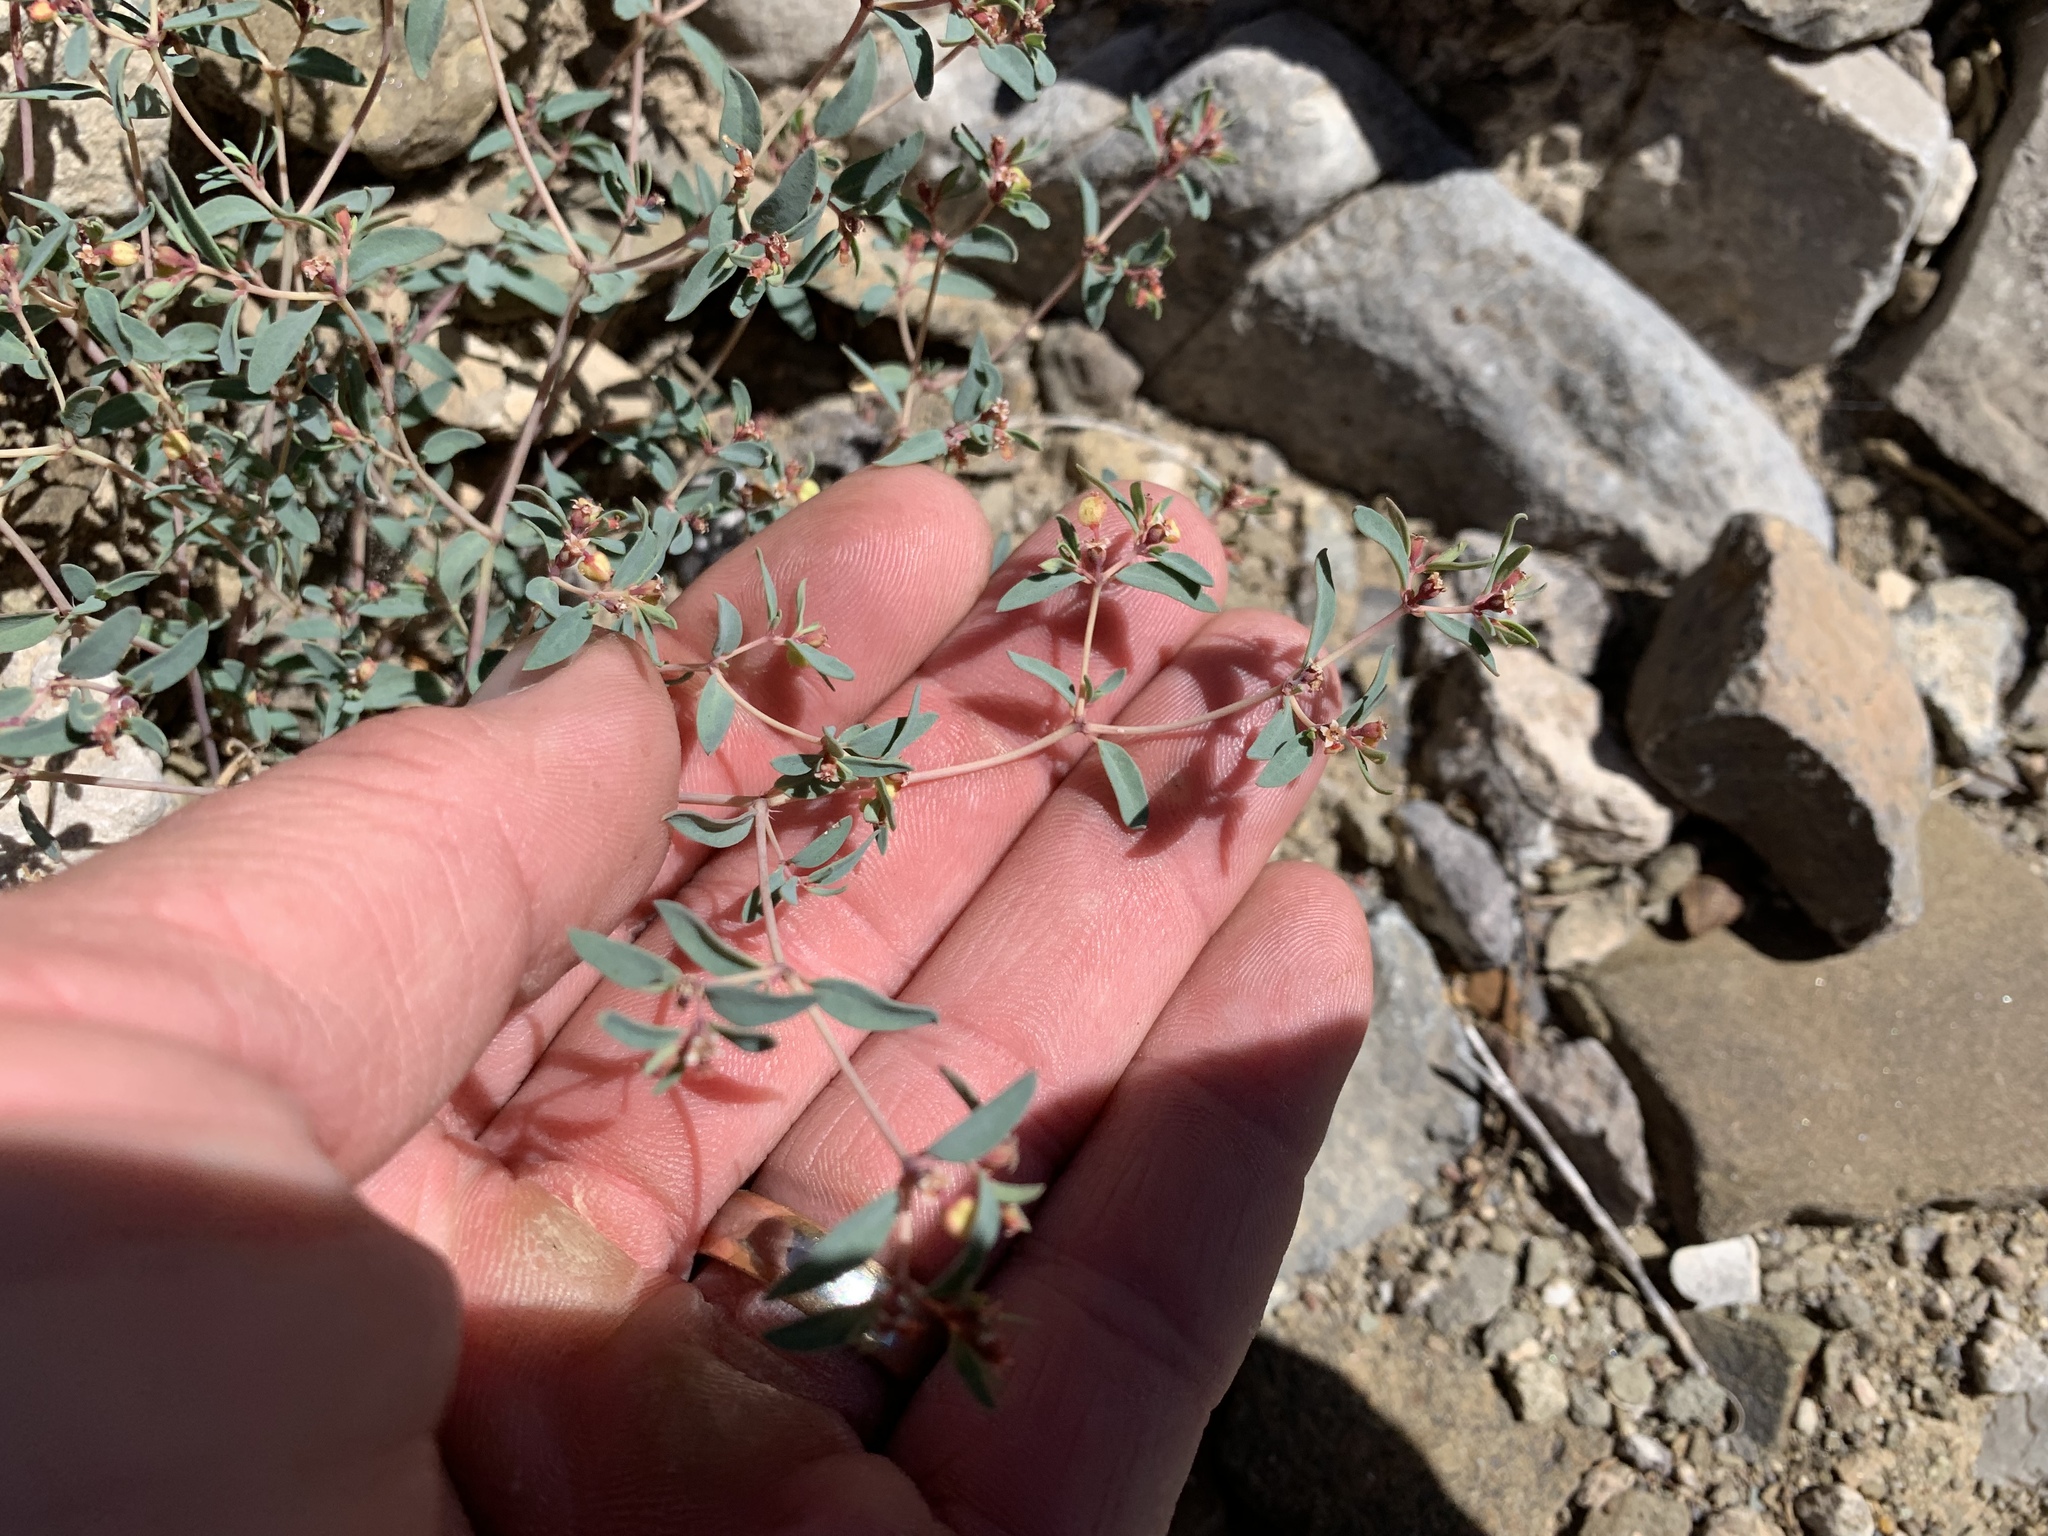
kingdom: Plantae
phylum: Tracheophyta
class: Magnoliopsida
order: Malpighiales
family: Euphorbiaceae
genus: Euphorbia
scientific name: Euphorbia chaetocalyx
